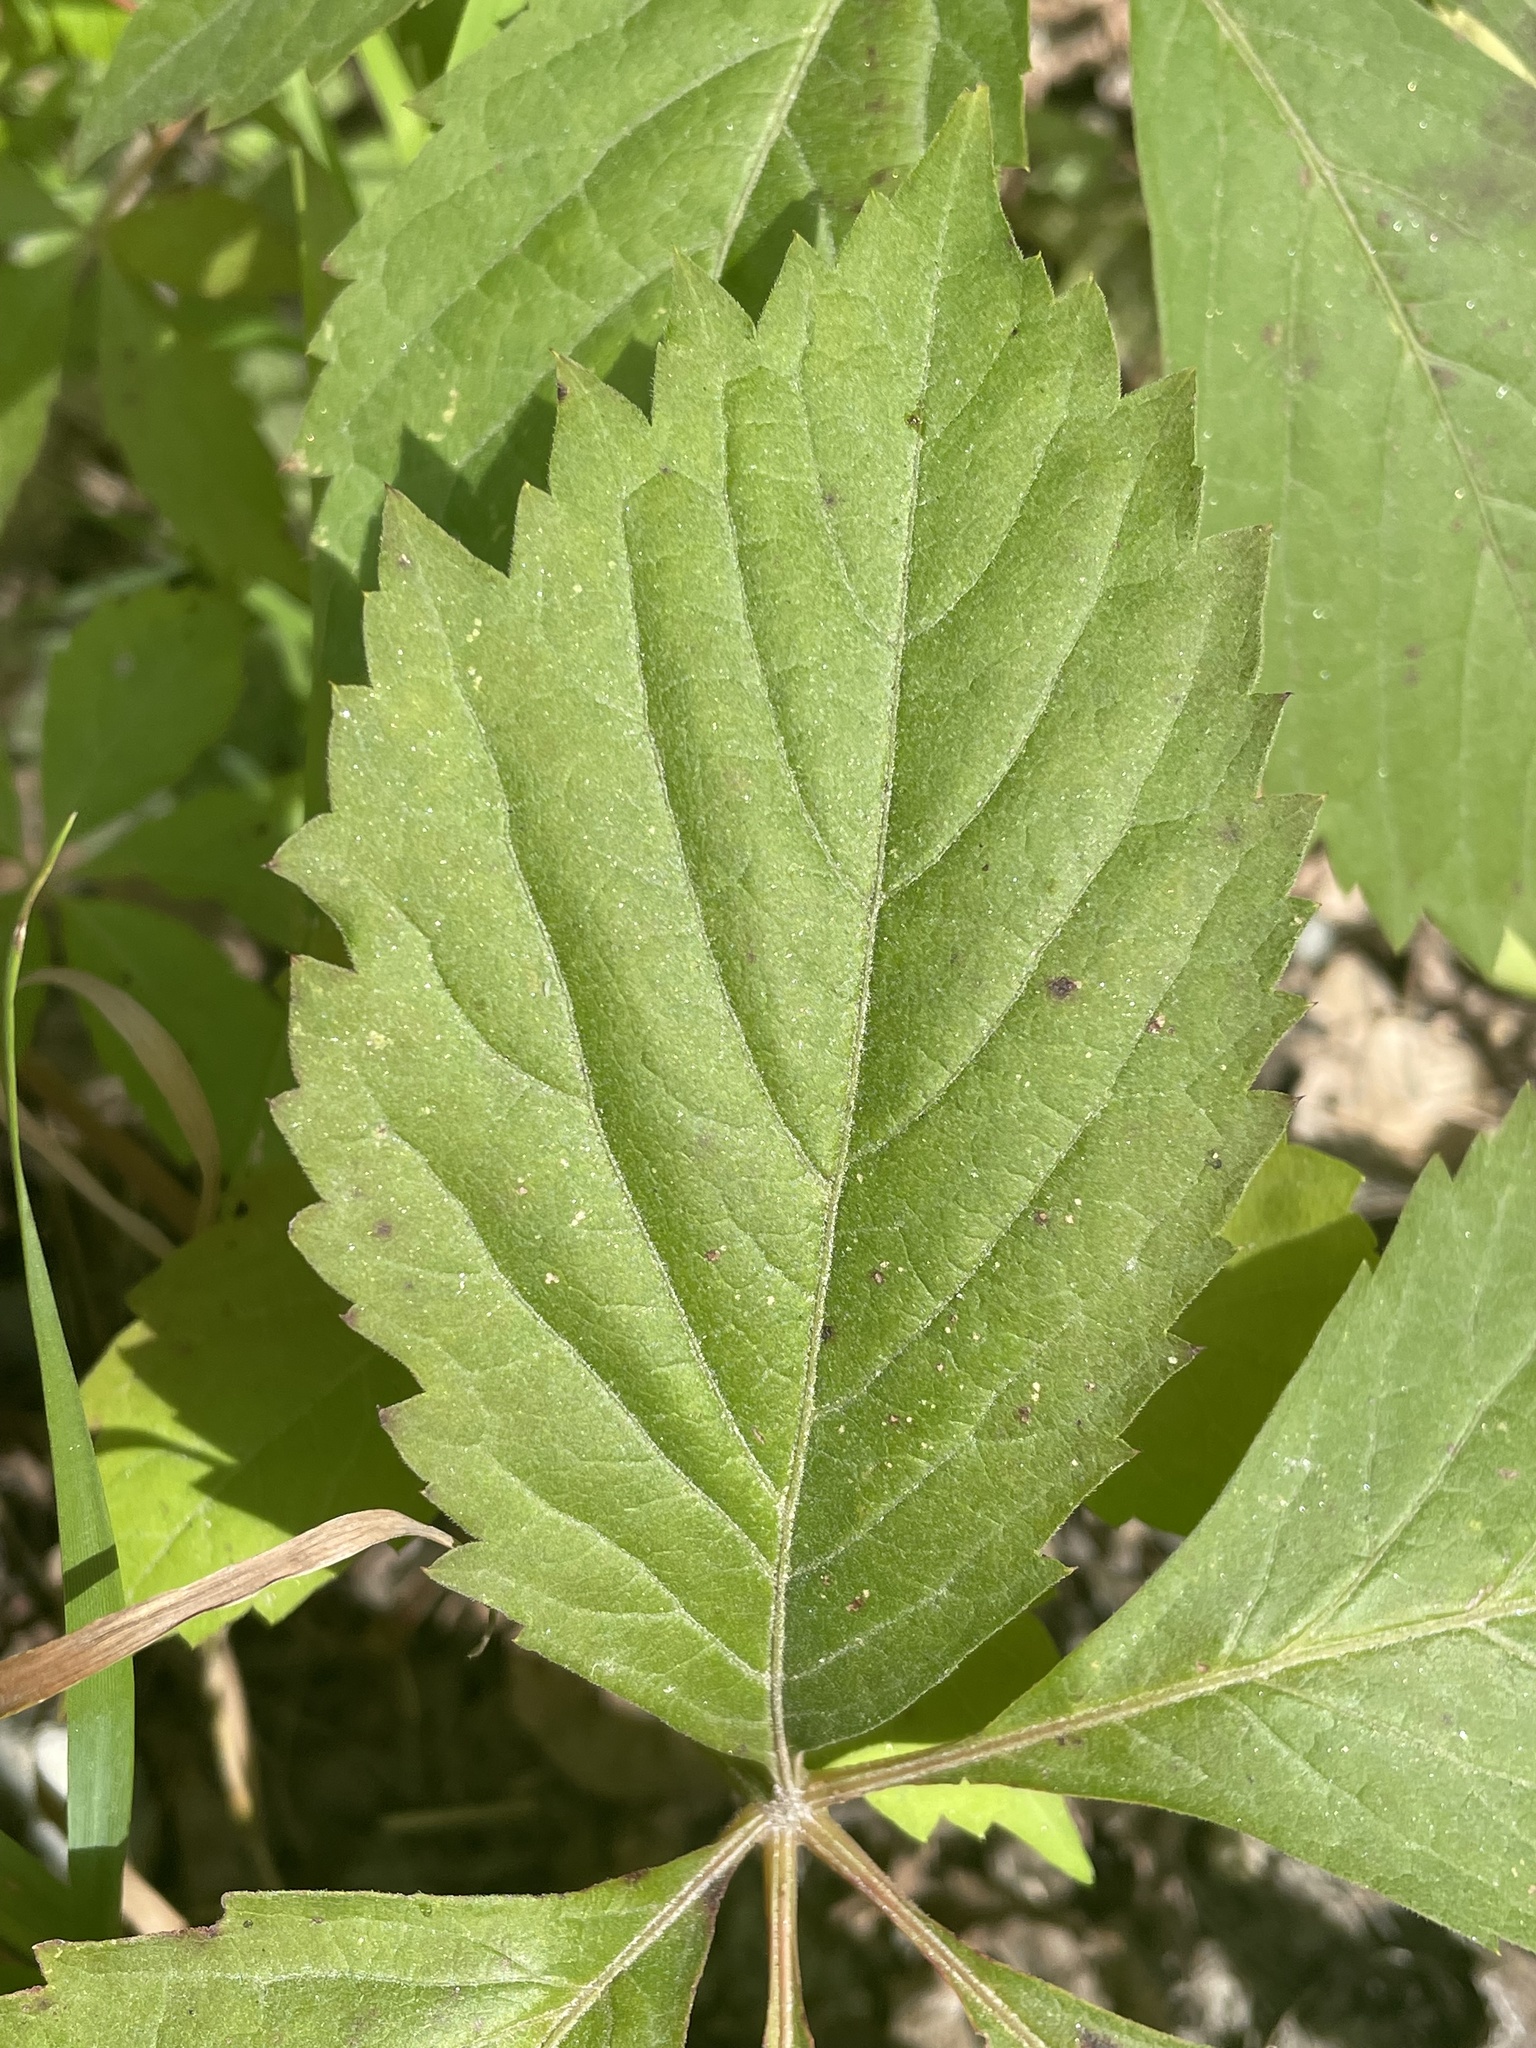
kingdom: Plantae
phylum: Tracheophyta
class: Magnoliopsida
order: Vitales
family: Vitaceae
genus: Parthenocissus
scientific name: Parthenocissus quinquefolia
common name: Virginia-creeper
